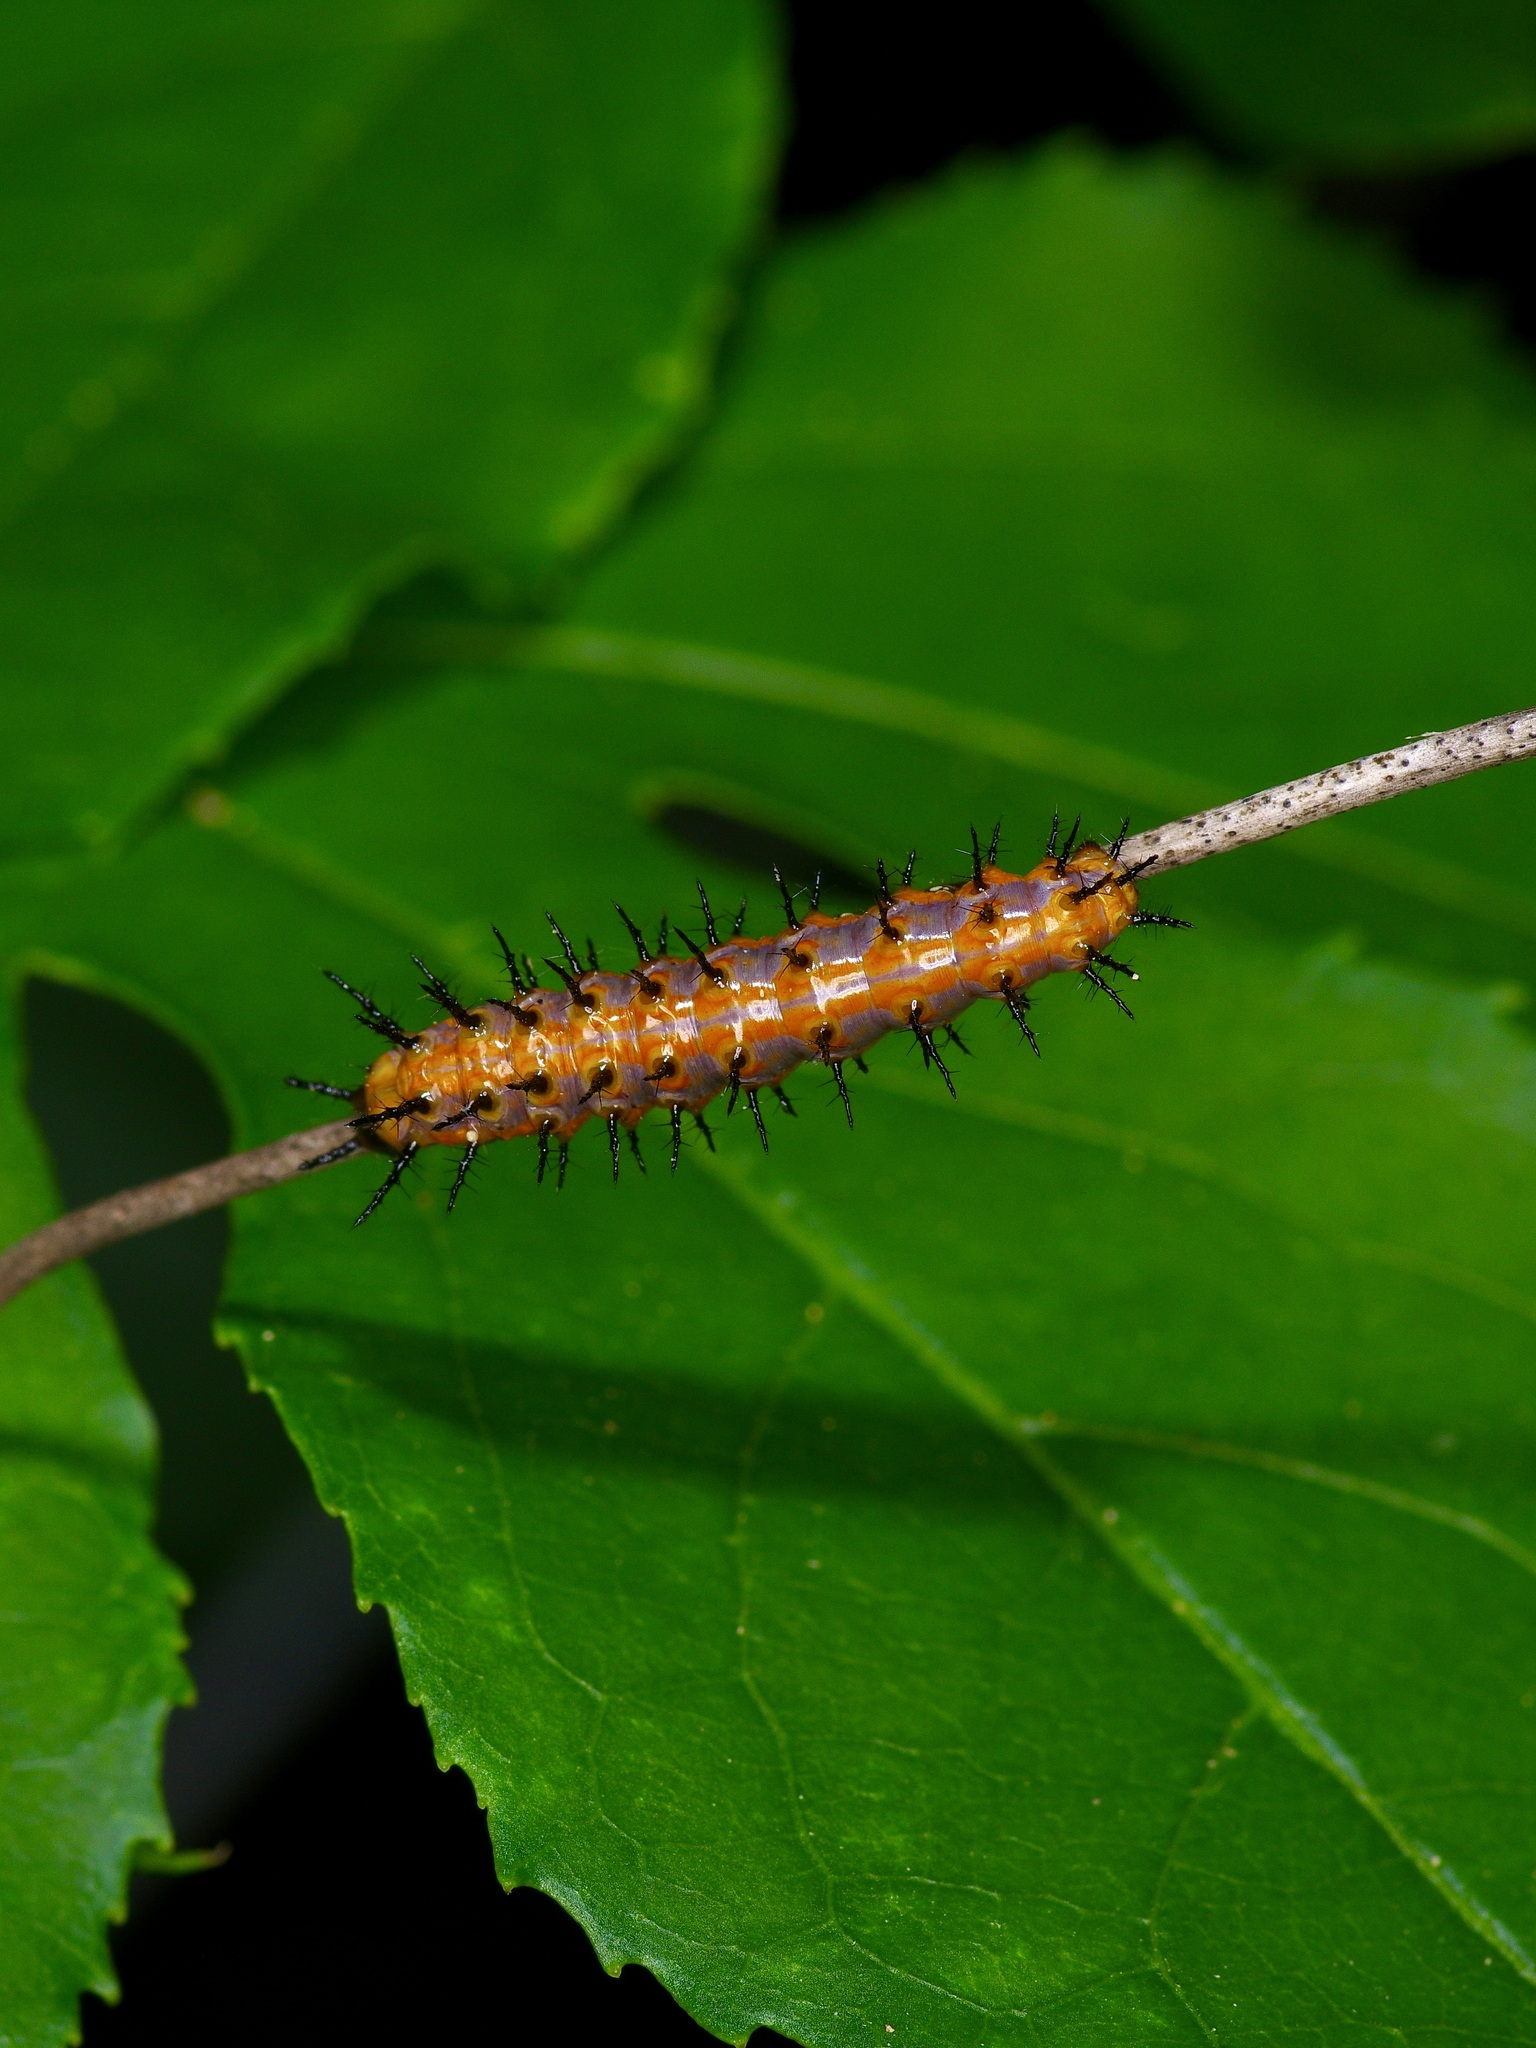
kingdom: Animalia
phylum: Arthropoda
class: Insecta
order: Lepidoptera
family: Nymphalidae
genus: Dione
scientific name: Dione vanillae
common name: Gulf fritillary
